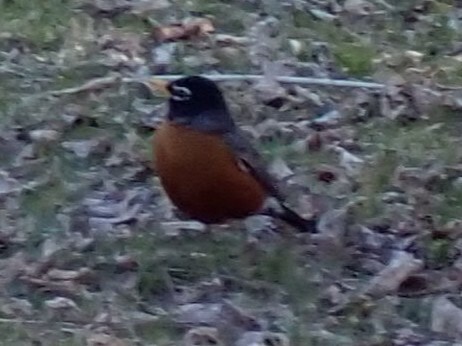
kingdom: Animalia
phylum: Chordata
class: Aves
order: Passeriformes
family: Turdidae
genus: Turdus
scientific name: Turdus migratorius
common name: American robin
